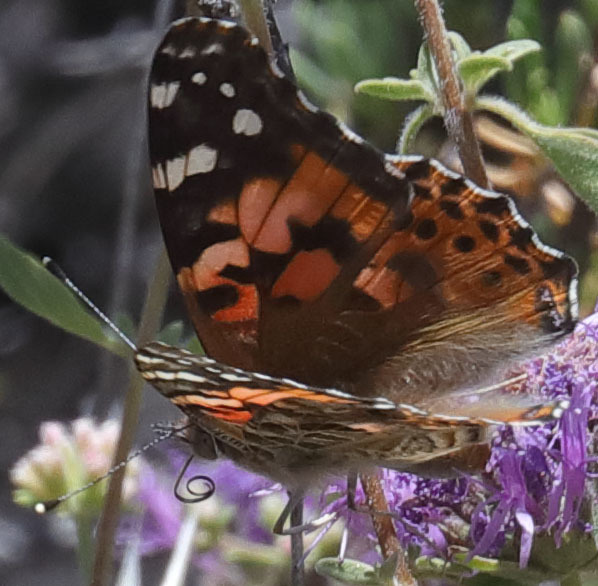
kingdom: Animalia
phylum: Arthropoda
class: Insecta
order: Lepidoptera
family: Nymphalidae
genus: Vanessa
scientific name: Vanessa cardui
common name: Painted lady
